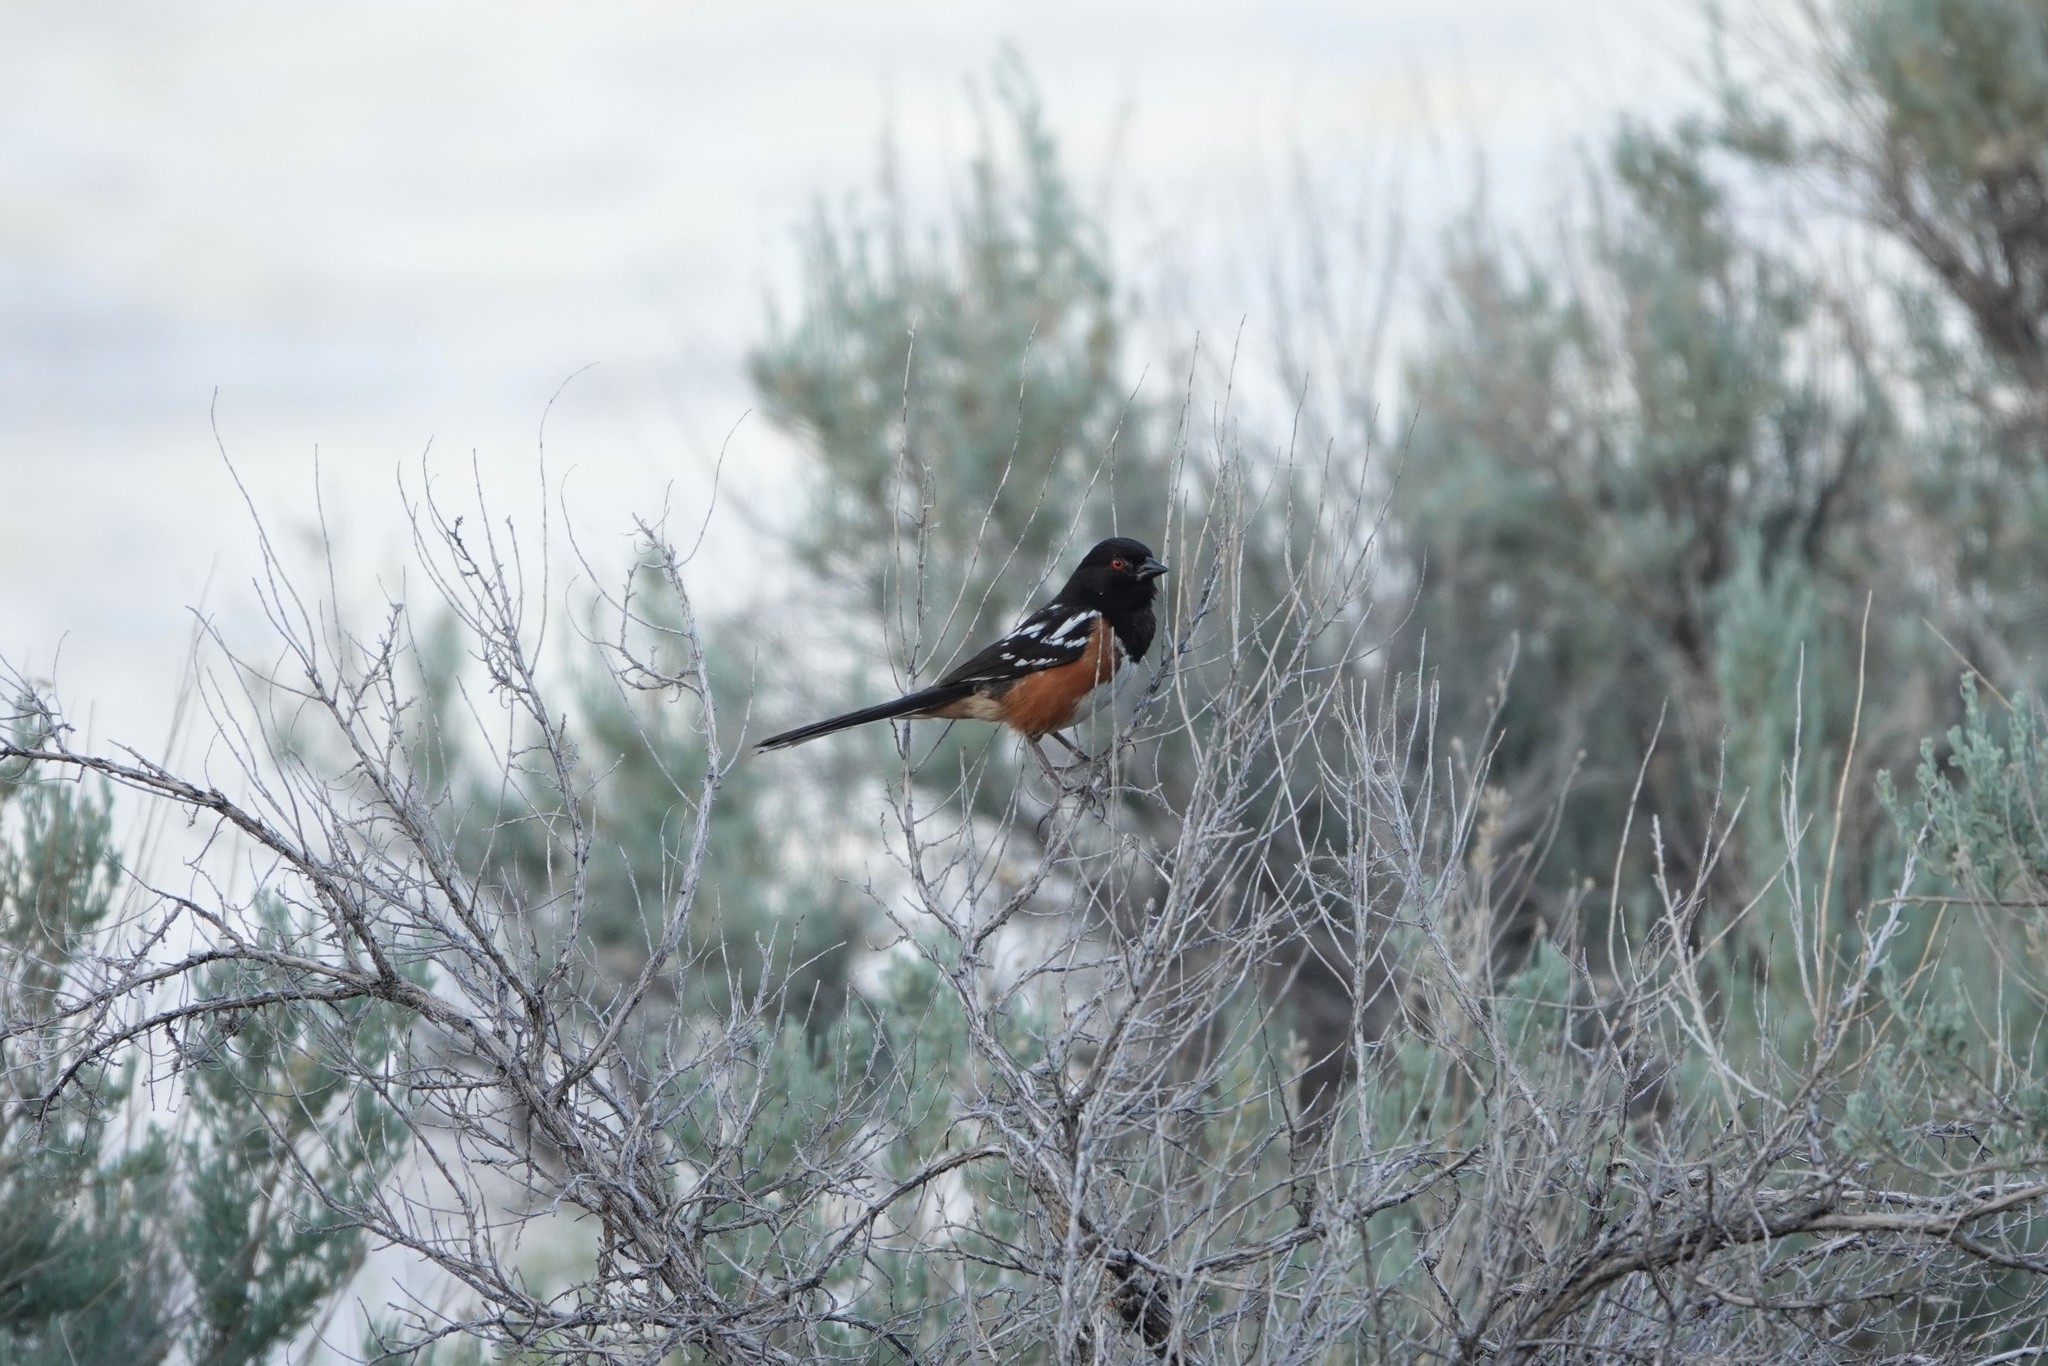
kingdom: Animalia
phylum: Chordata
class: Aves
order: Passeriformes
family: Passerellidae
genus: Pipilo
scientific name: Pipilo maculatus
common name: Spotted towhee
